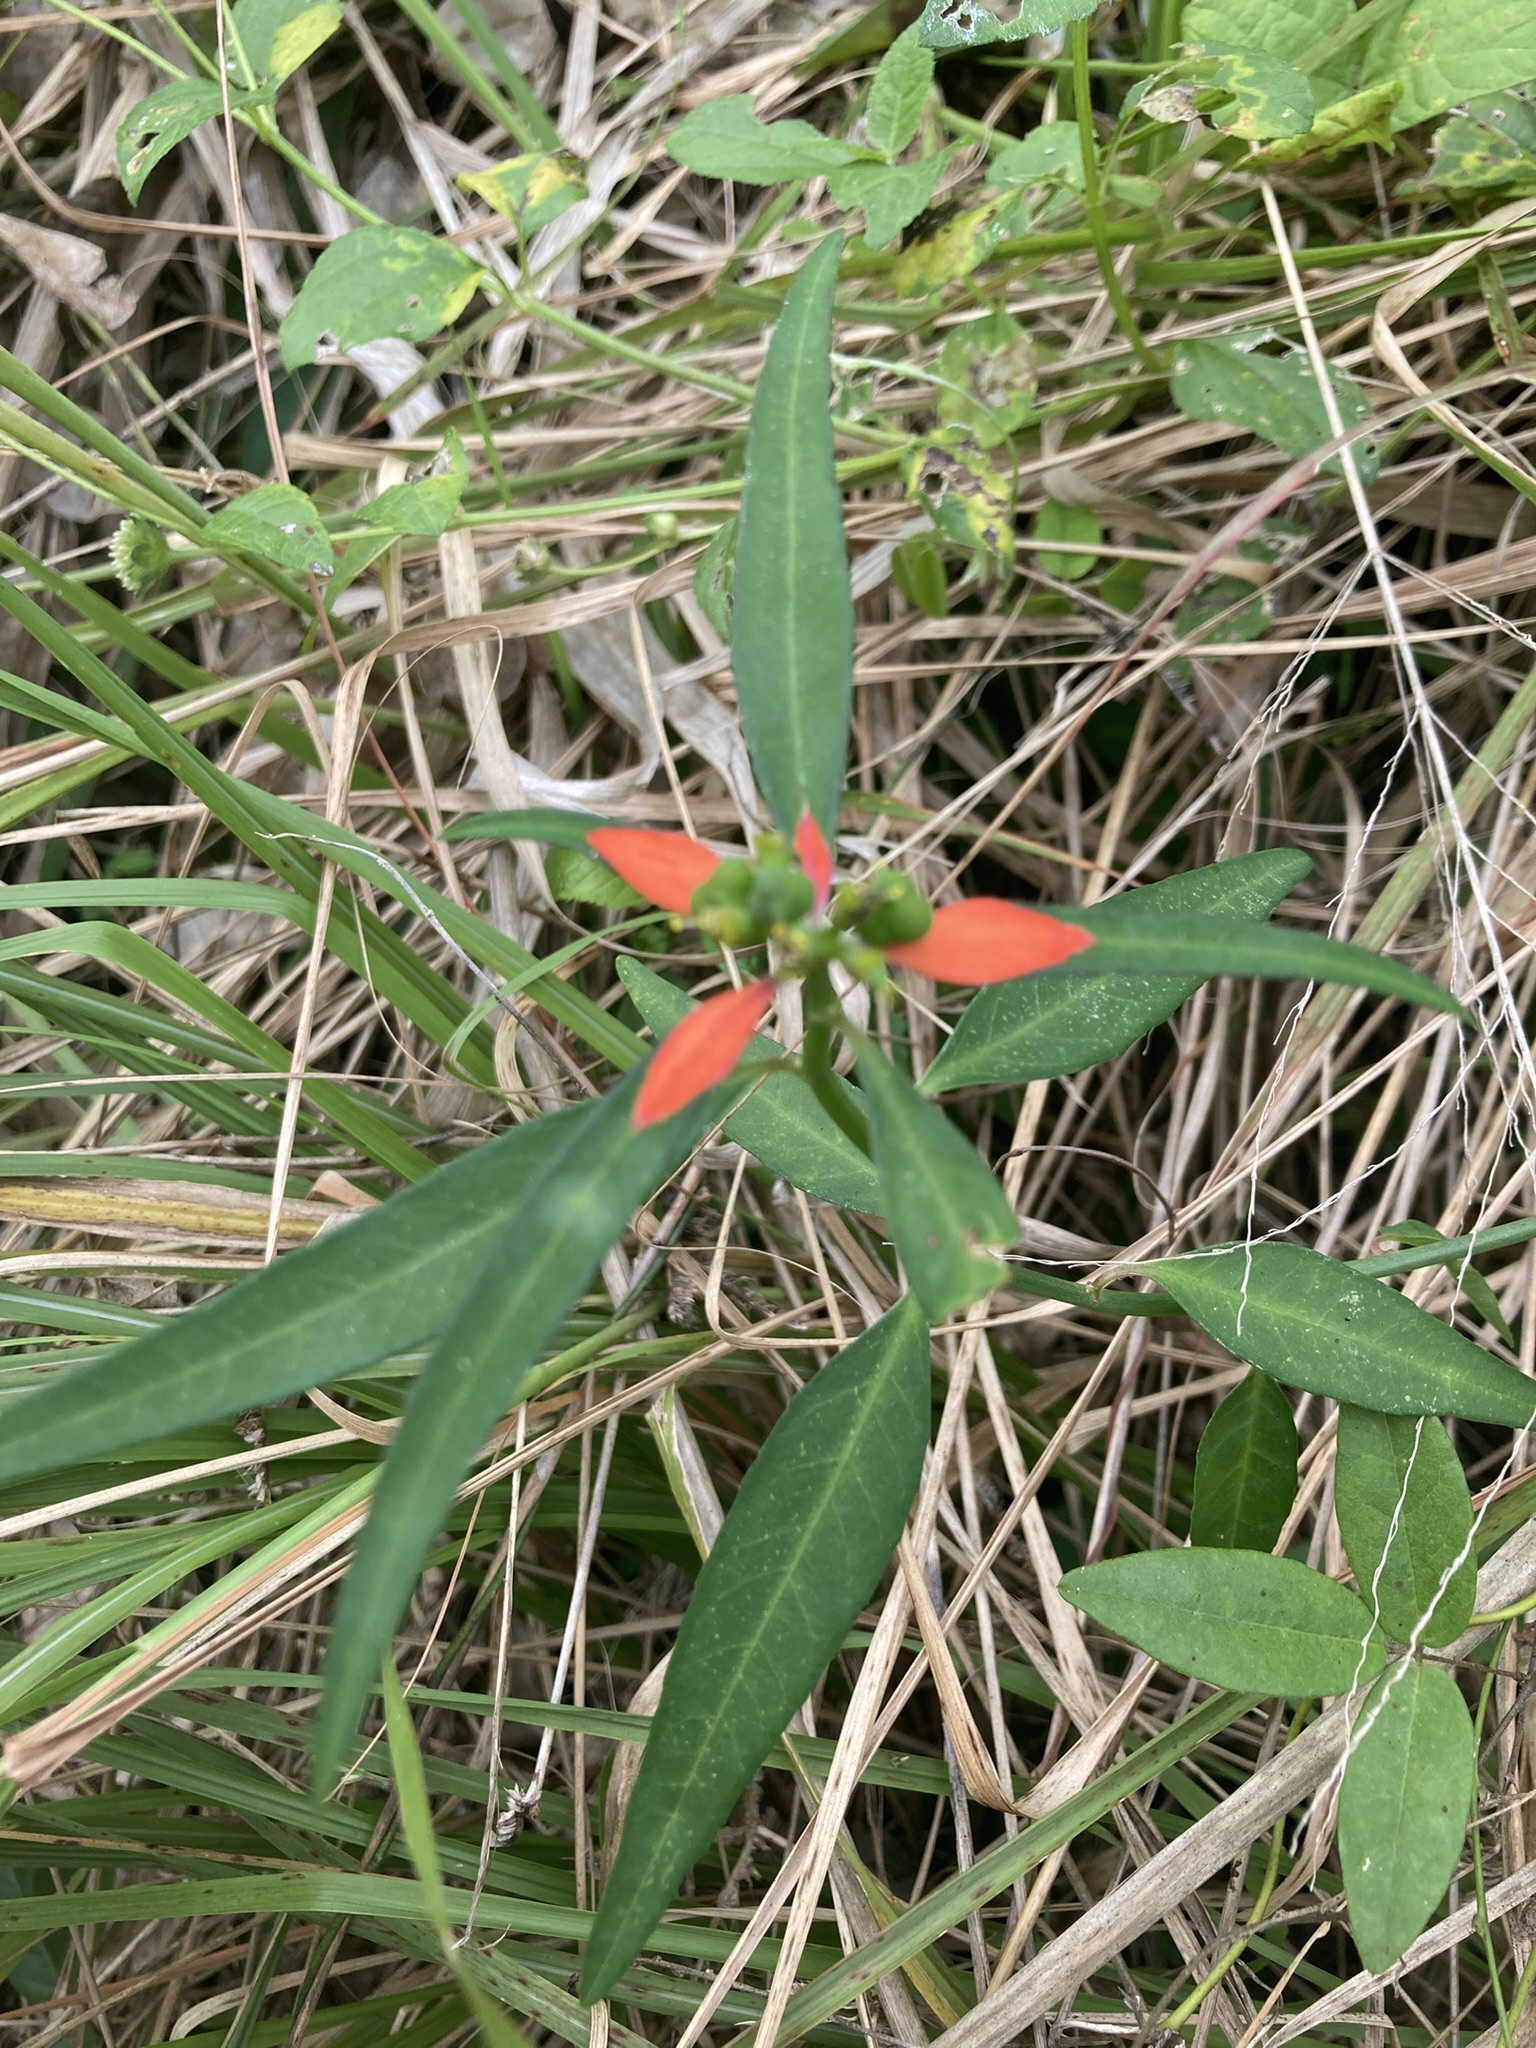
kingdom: Plantae
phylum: Tracheophyta
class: Magnoliopsida
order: Malpighiales
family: Euphorbiaceae
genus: Euphorbia
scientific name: Euphorbia heterophylla
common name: Mexican fireplant
